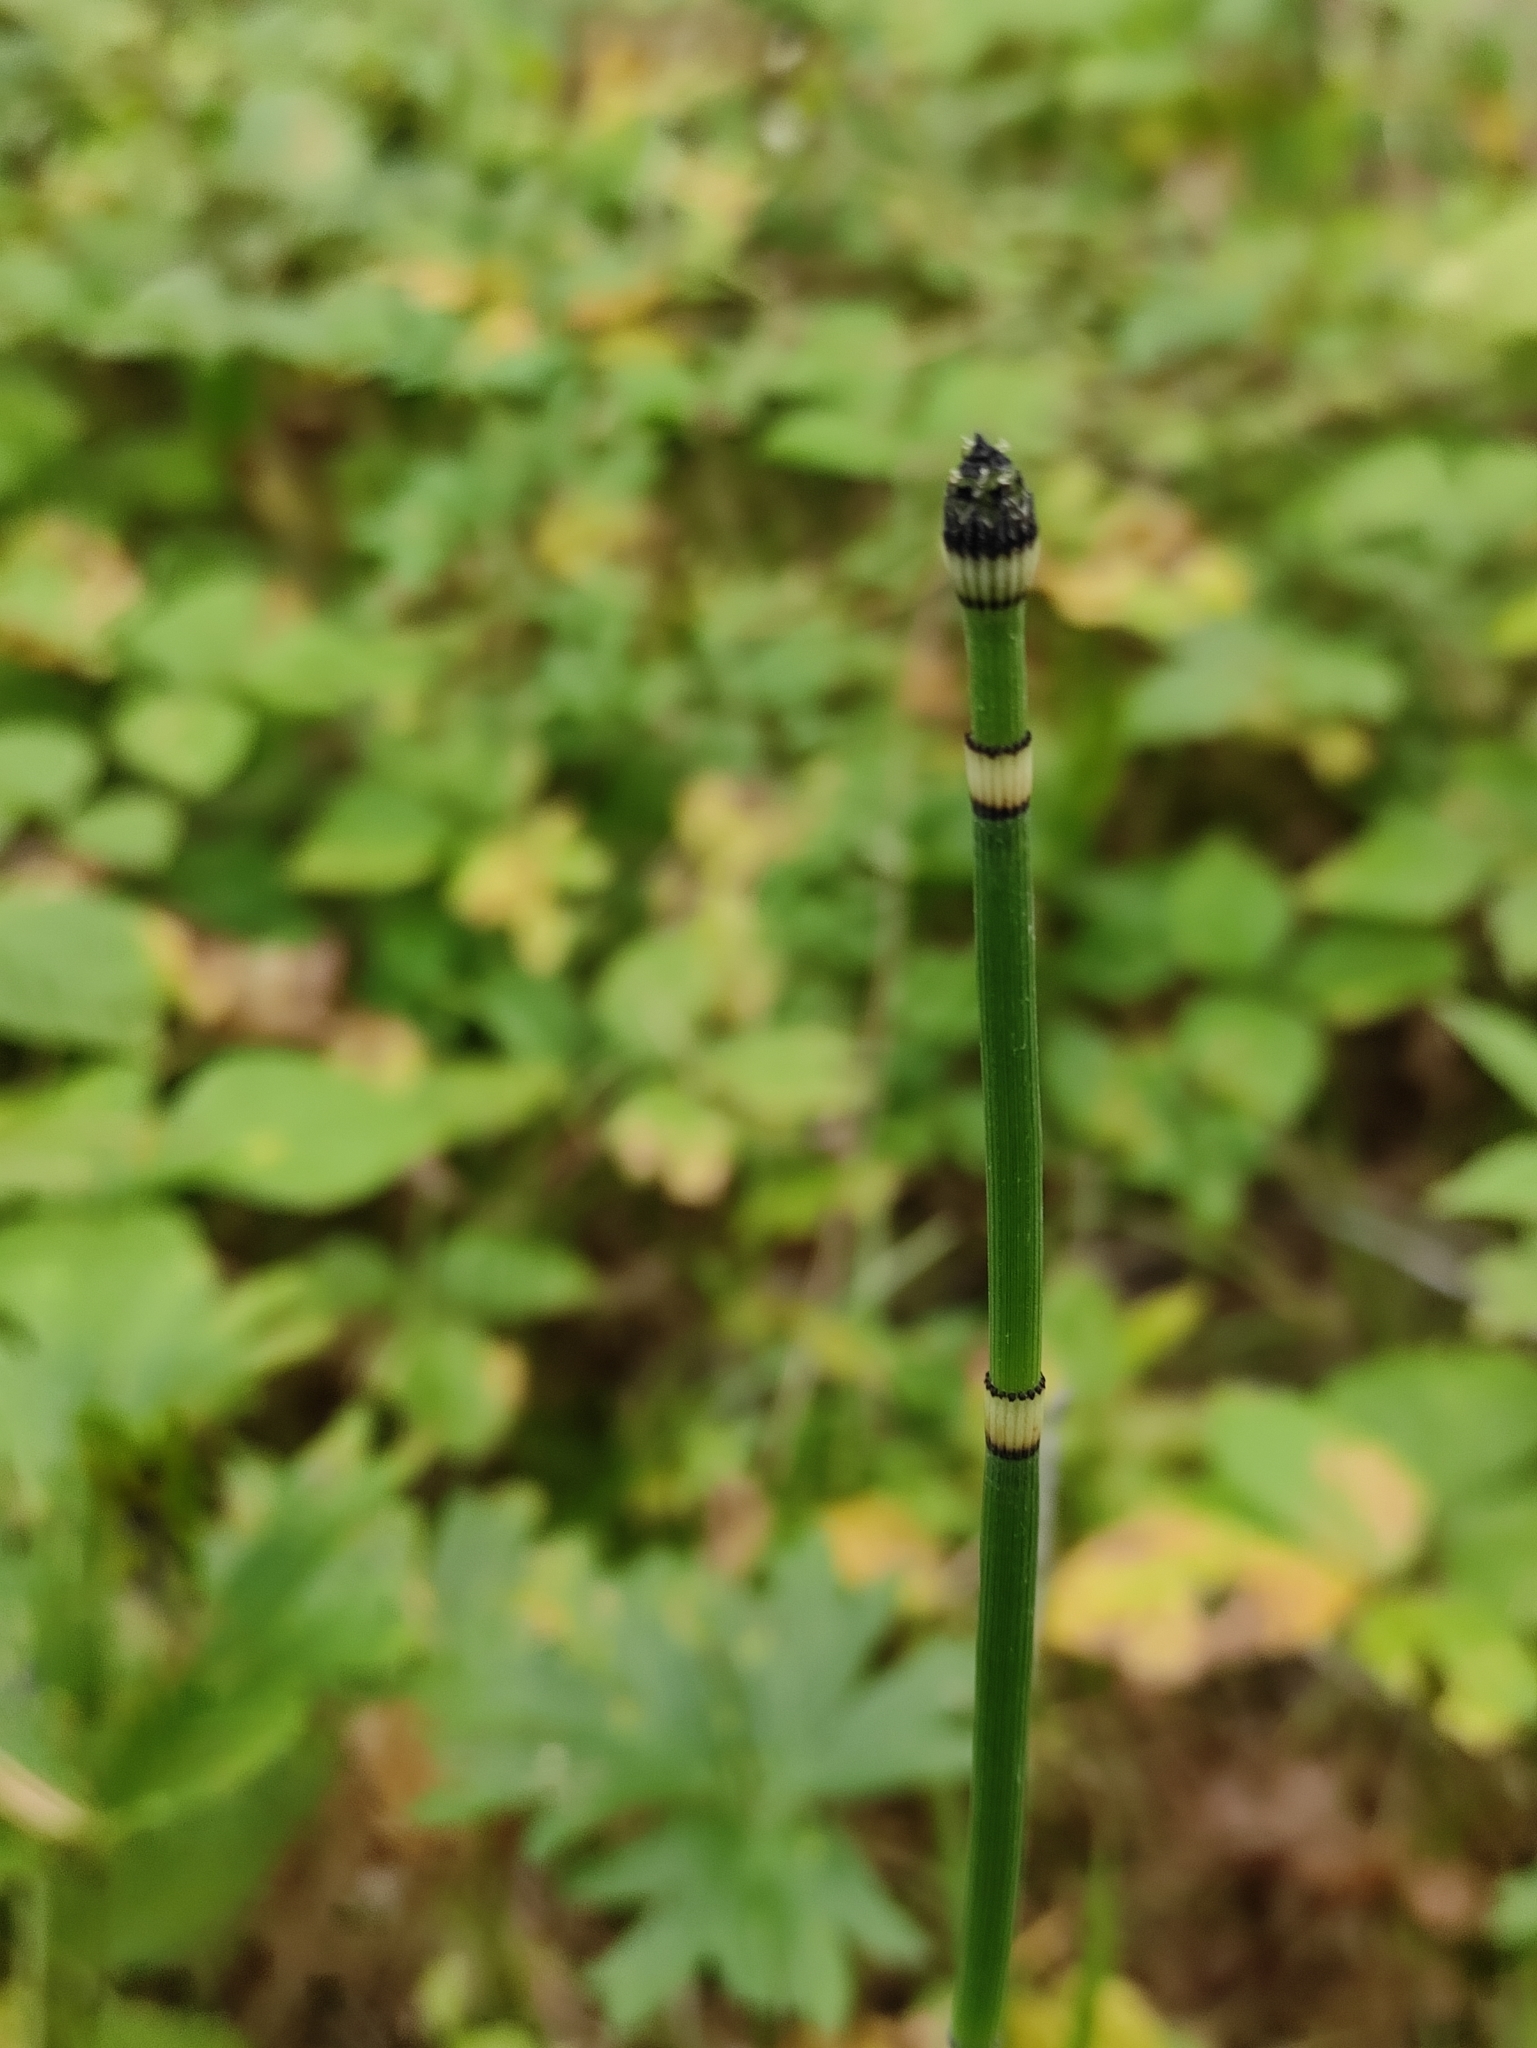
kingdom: Plantae
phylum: Tracheophyta
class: Polypodiopsida
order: Equisetales
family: Equisetaceae
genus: Equisetum
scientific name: Equisetum hyemale
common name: Rough horsetail
